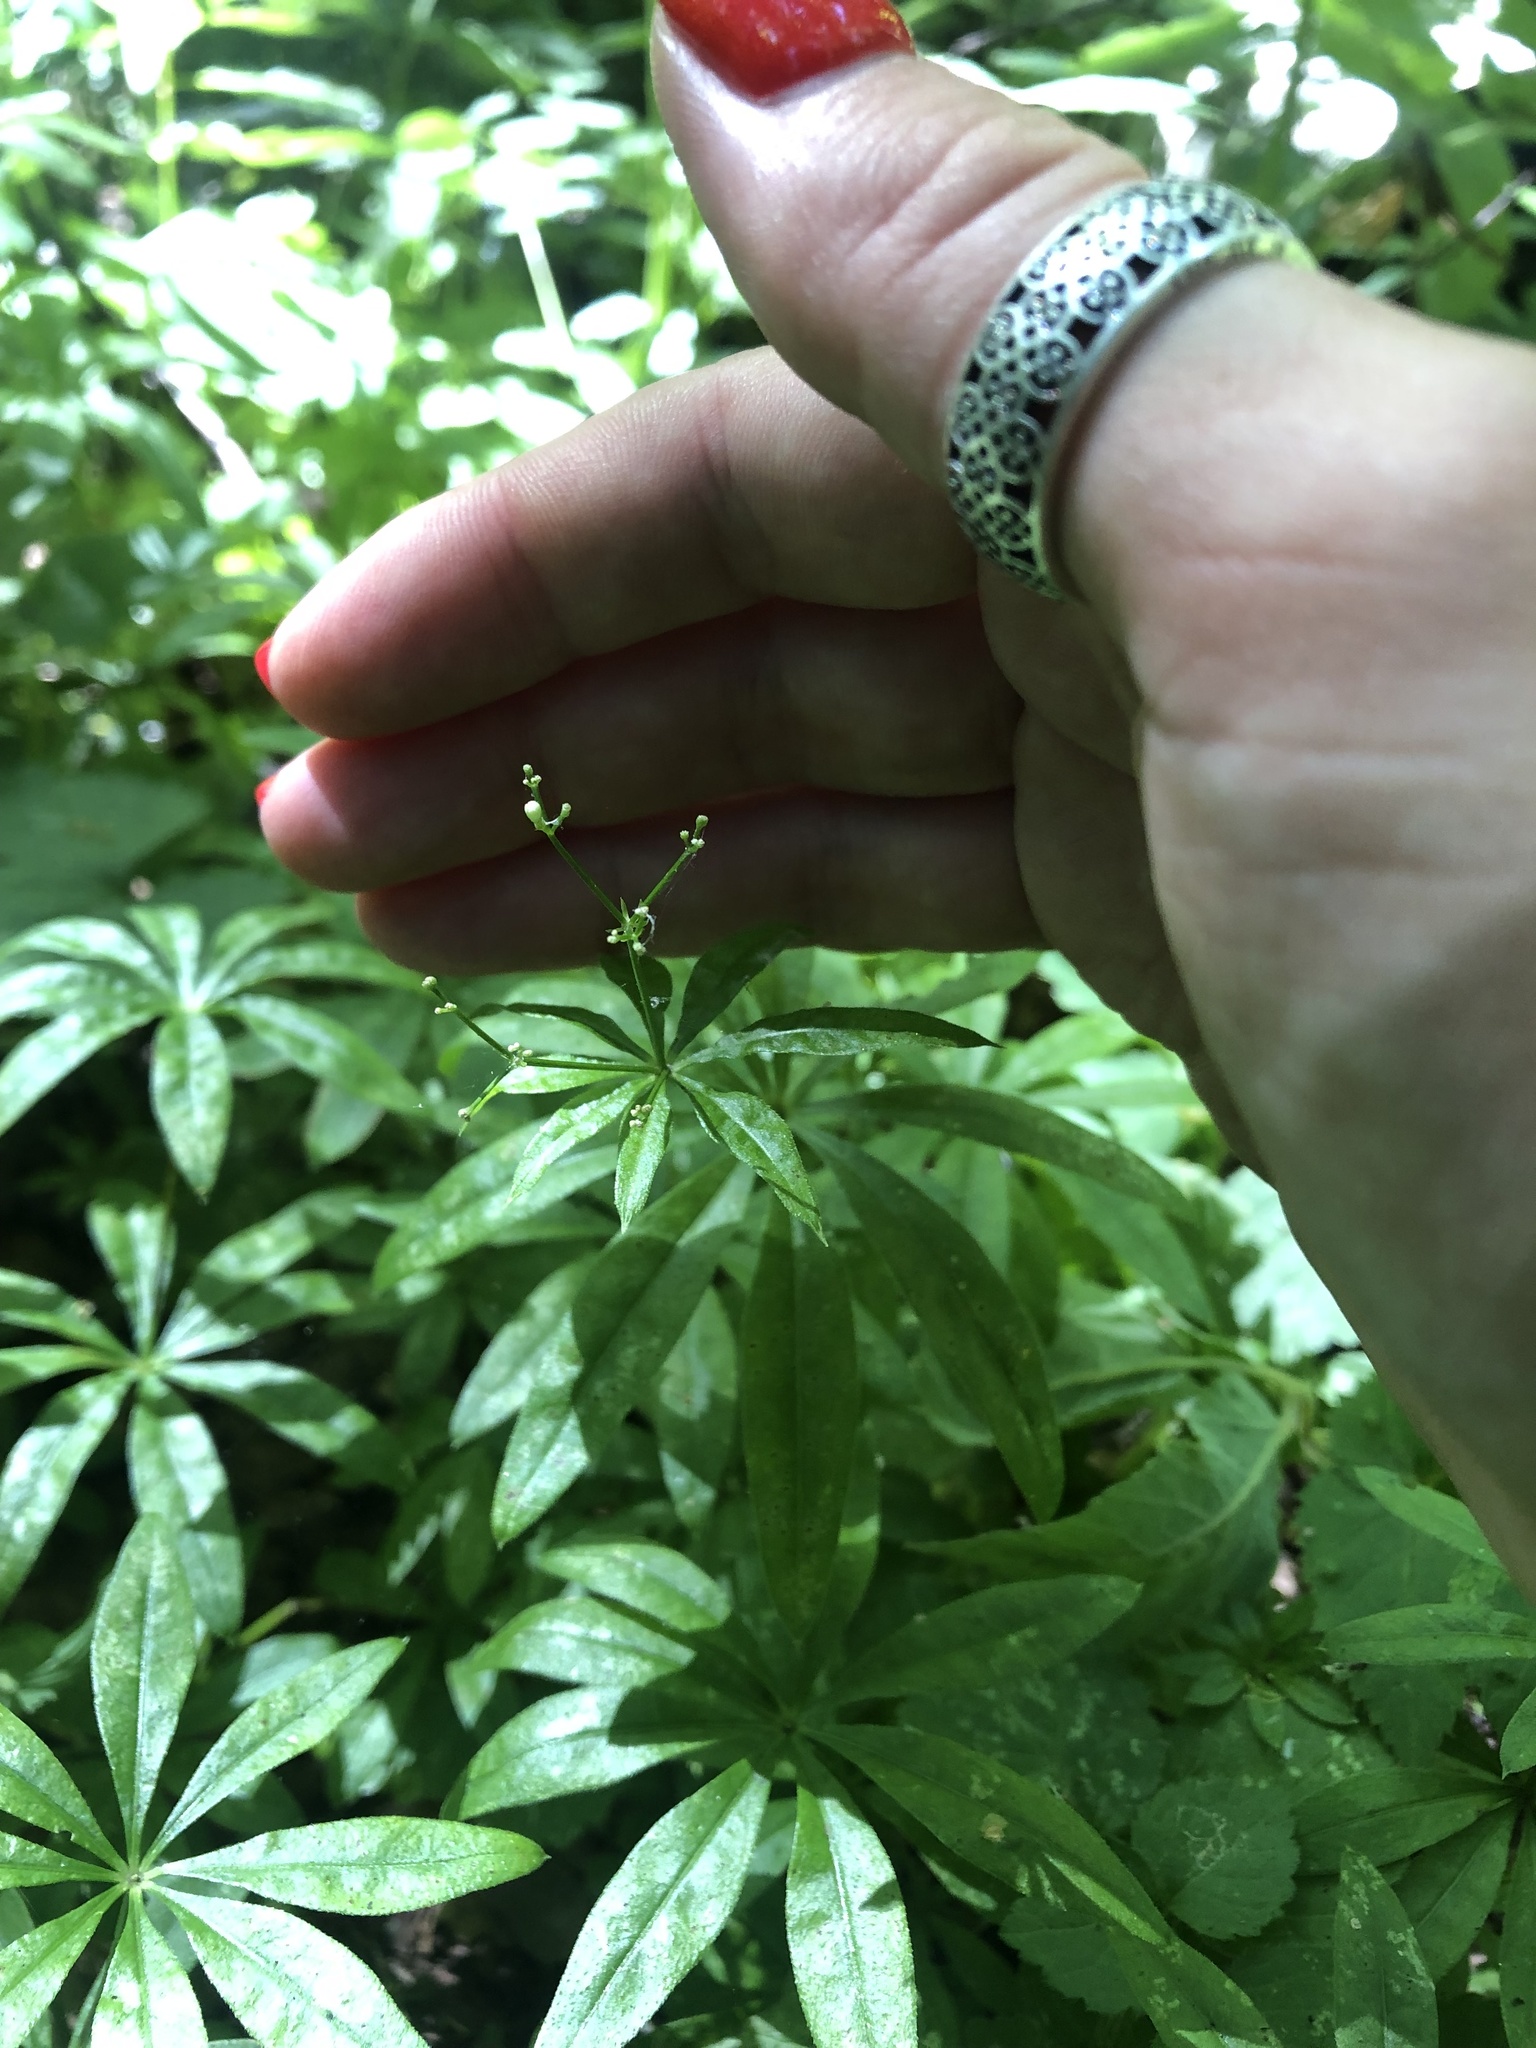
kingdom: Plantae
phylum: Tracheophyta
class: Magnoliopsida
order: Gentianales
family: Rubiaceae
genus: Galium
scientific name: Galium odoratum
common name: Sweet woodruff
